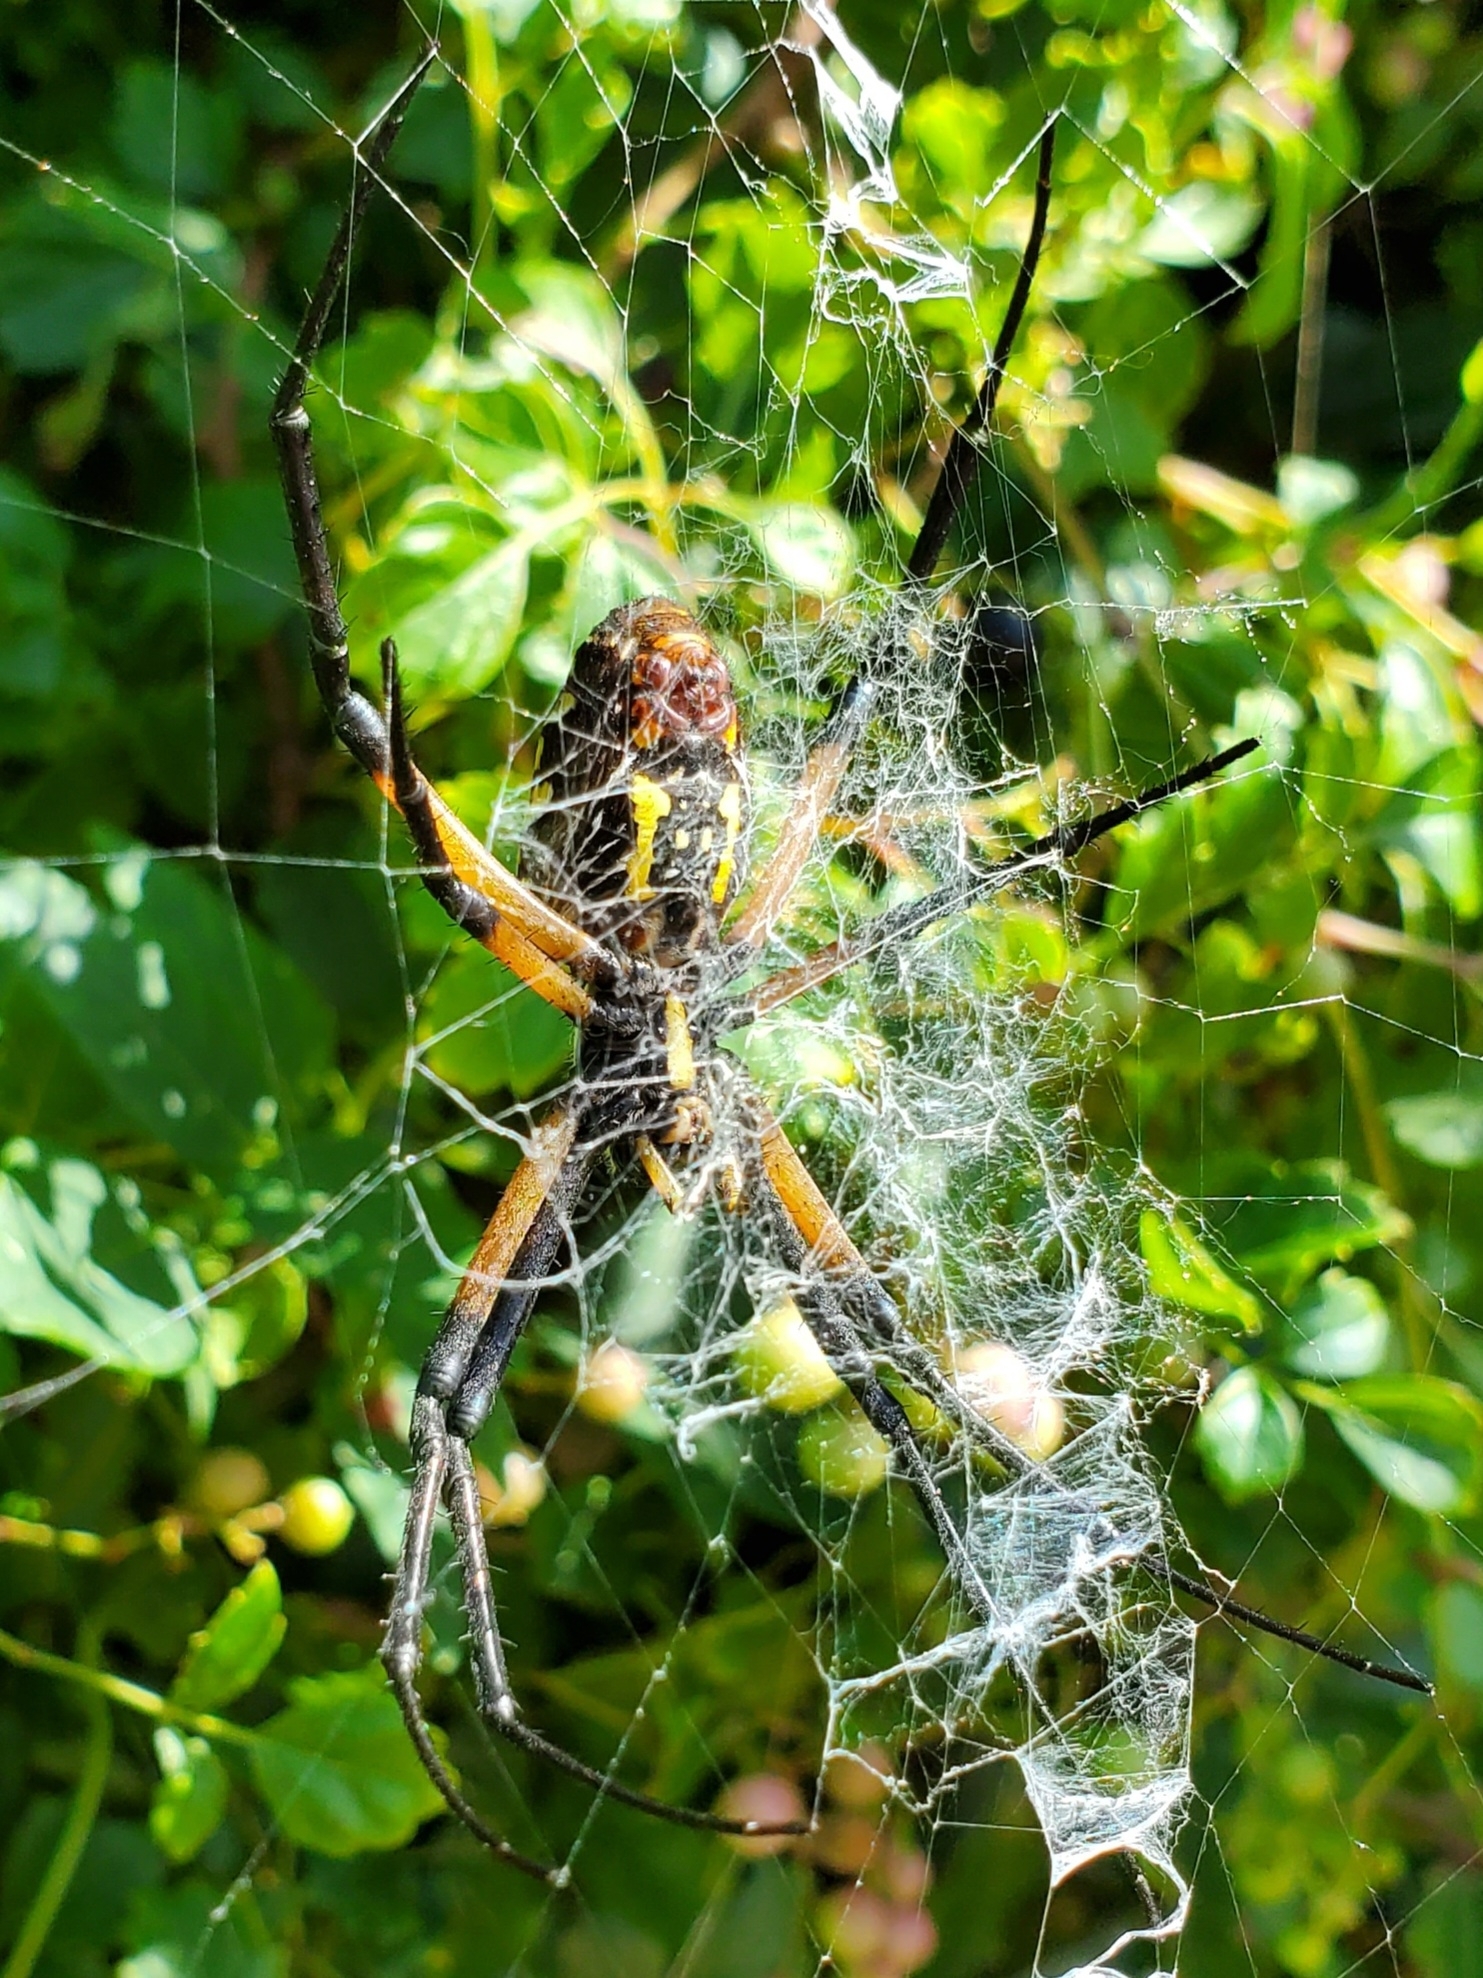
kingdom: Animalia
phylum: Arthropoda
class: Arachnida
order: Araneae
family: Araneidae
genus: Argiope
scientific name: Argiope aurantia
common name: Orb weavers
